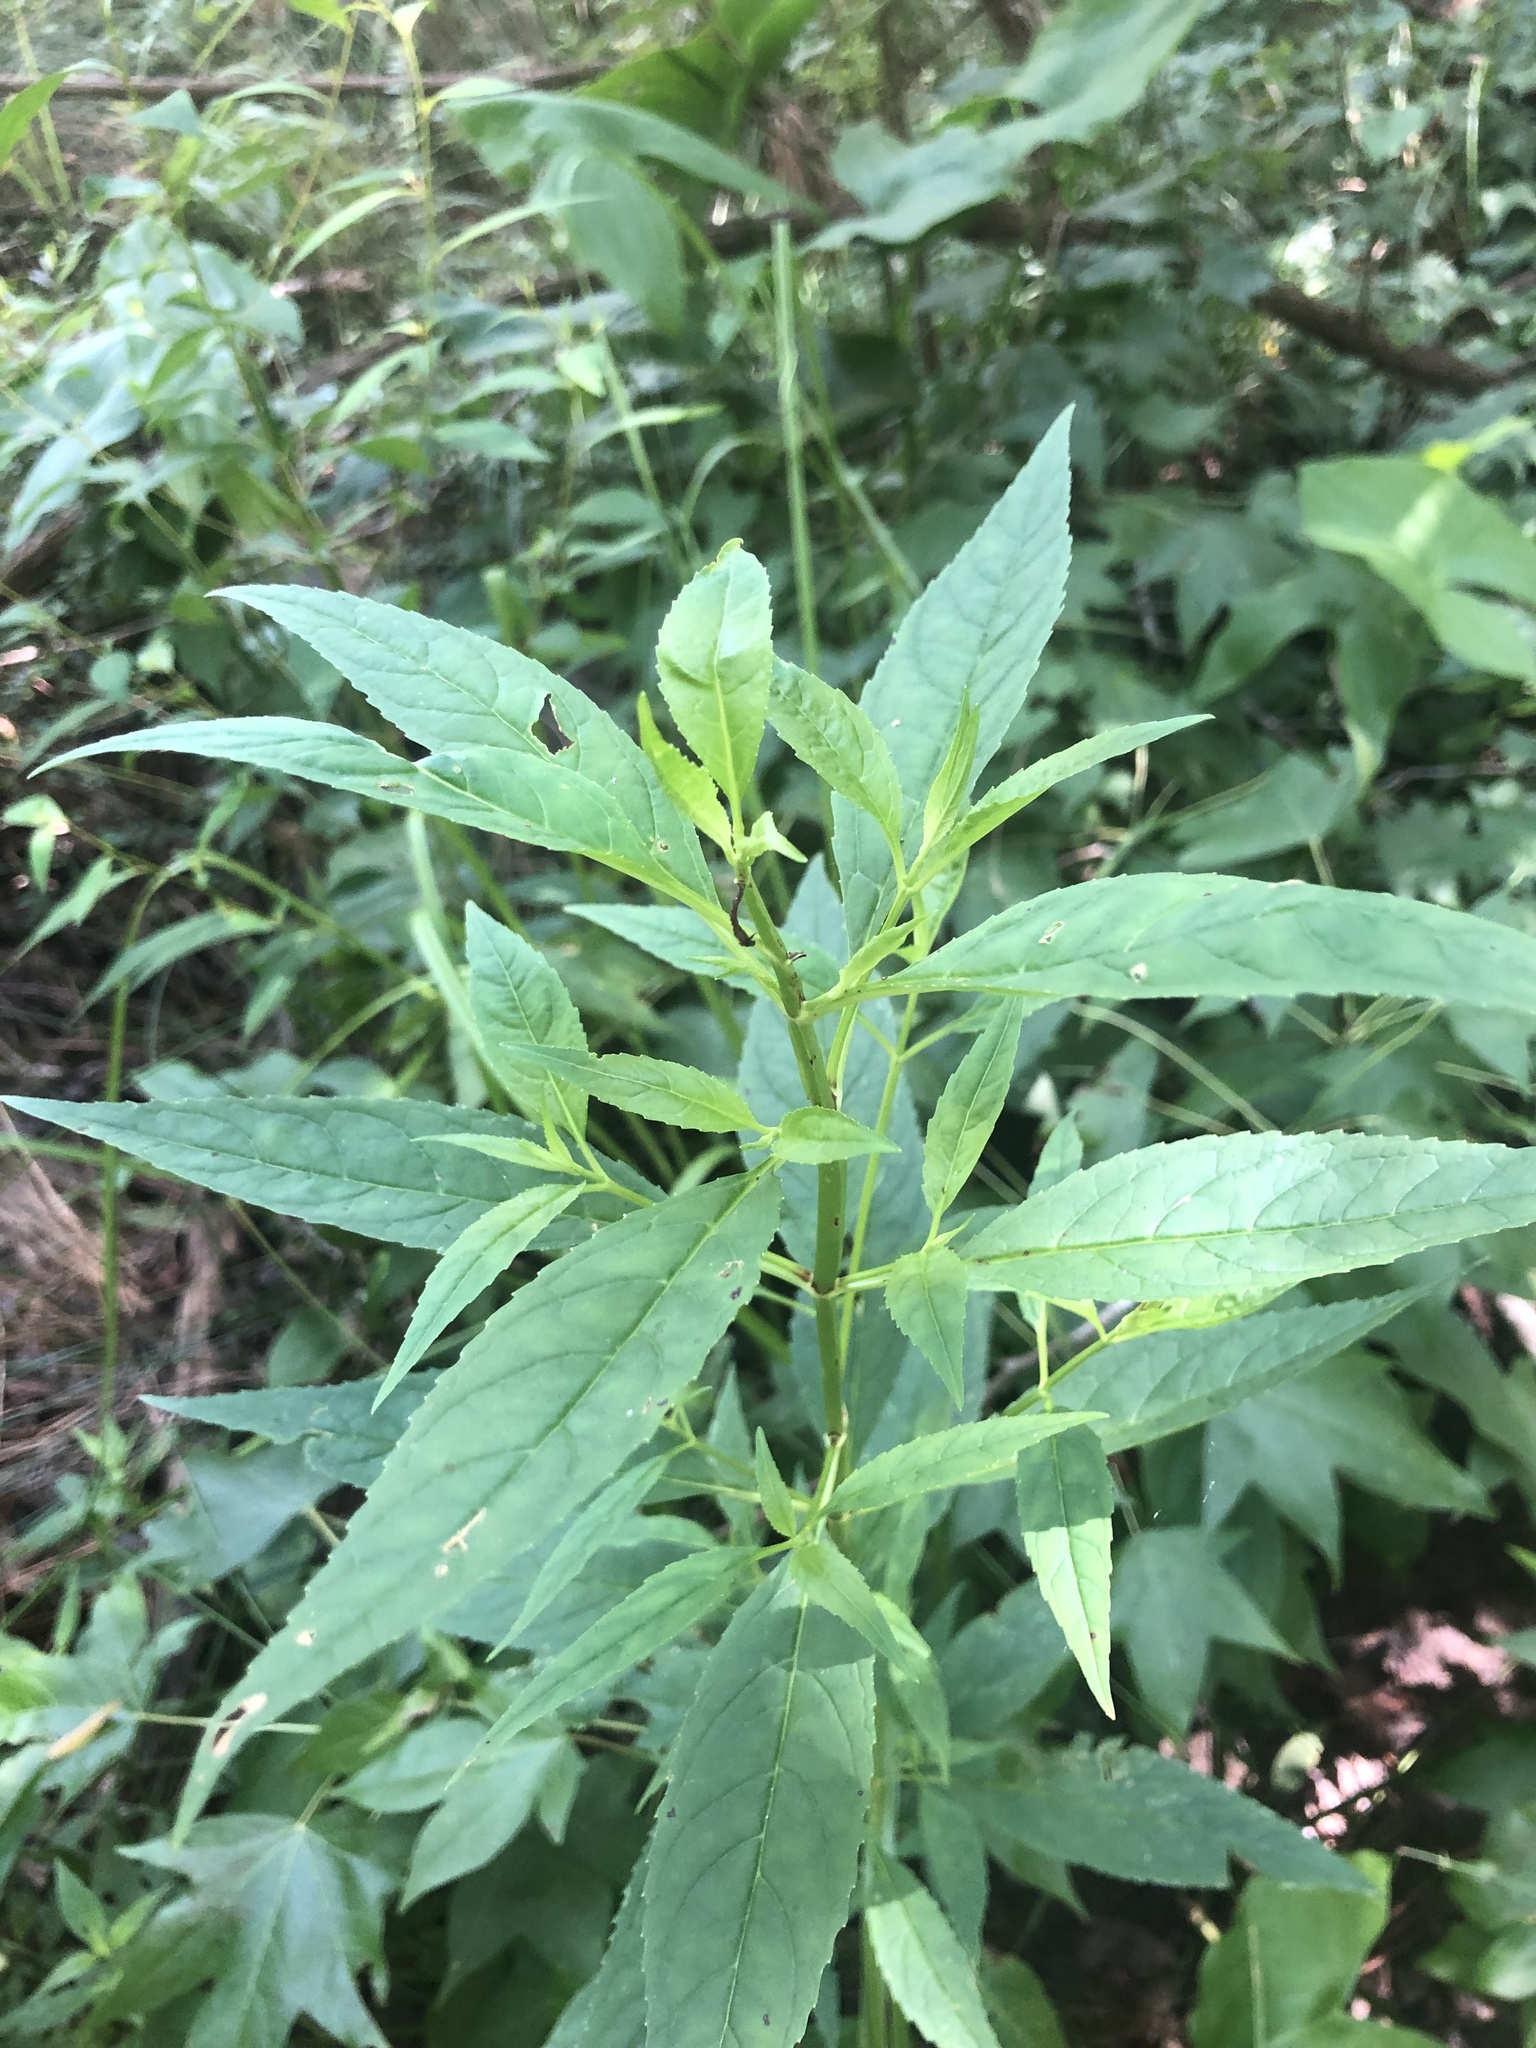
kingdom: Plantae
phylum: Tracheophyta
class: Magnoliopsida
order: Lamiales
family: Phrymaceae
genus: Mimulus
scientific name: Mimulus alatus
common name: Sharp-wing monkey-flower
